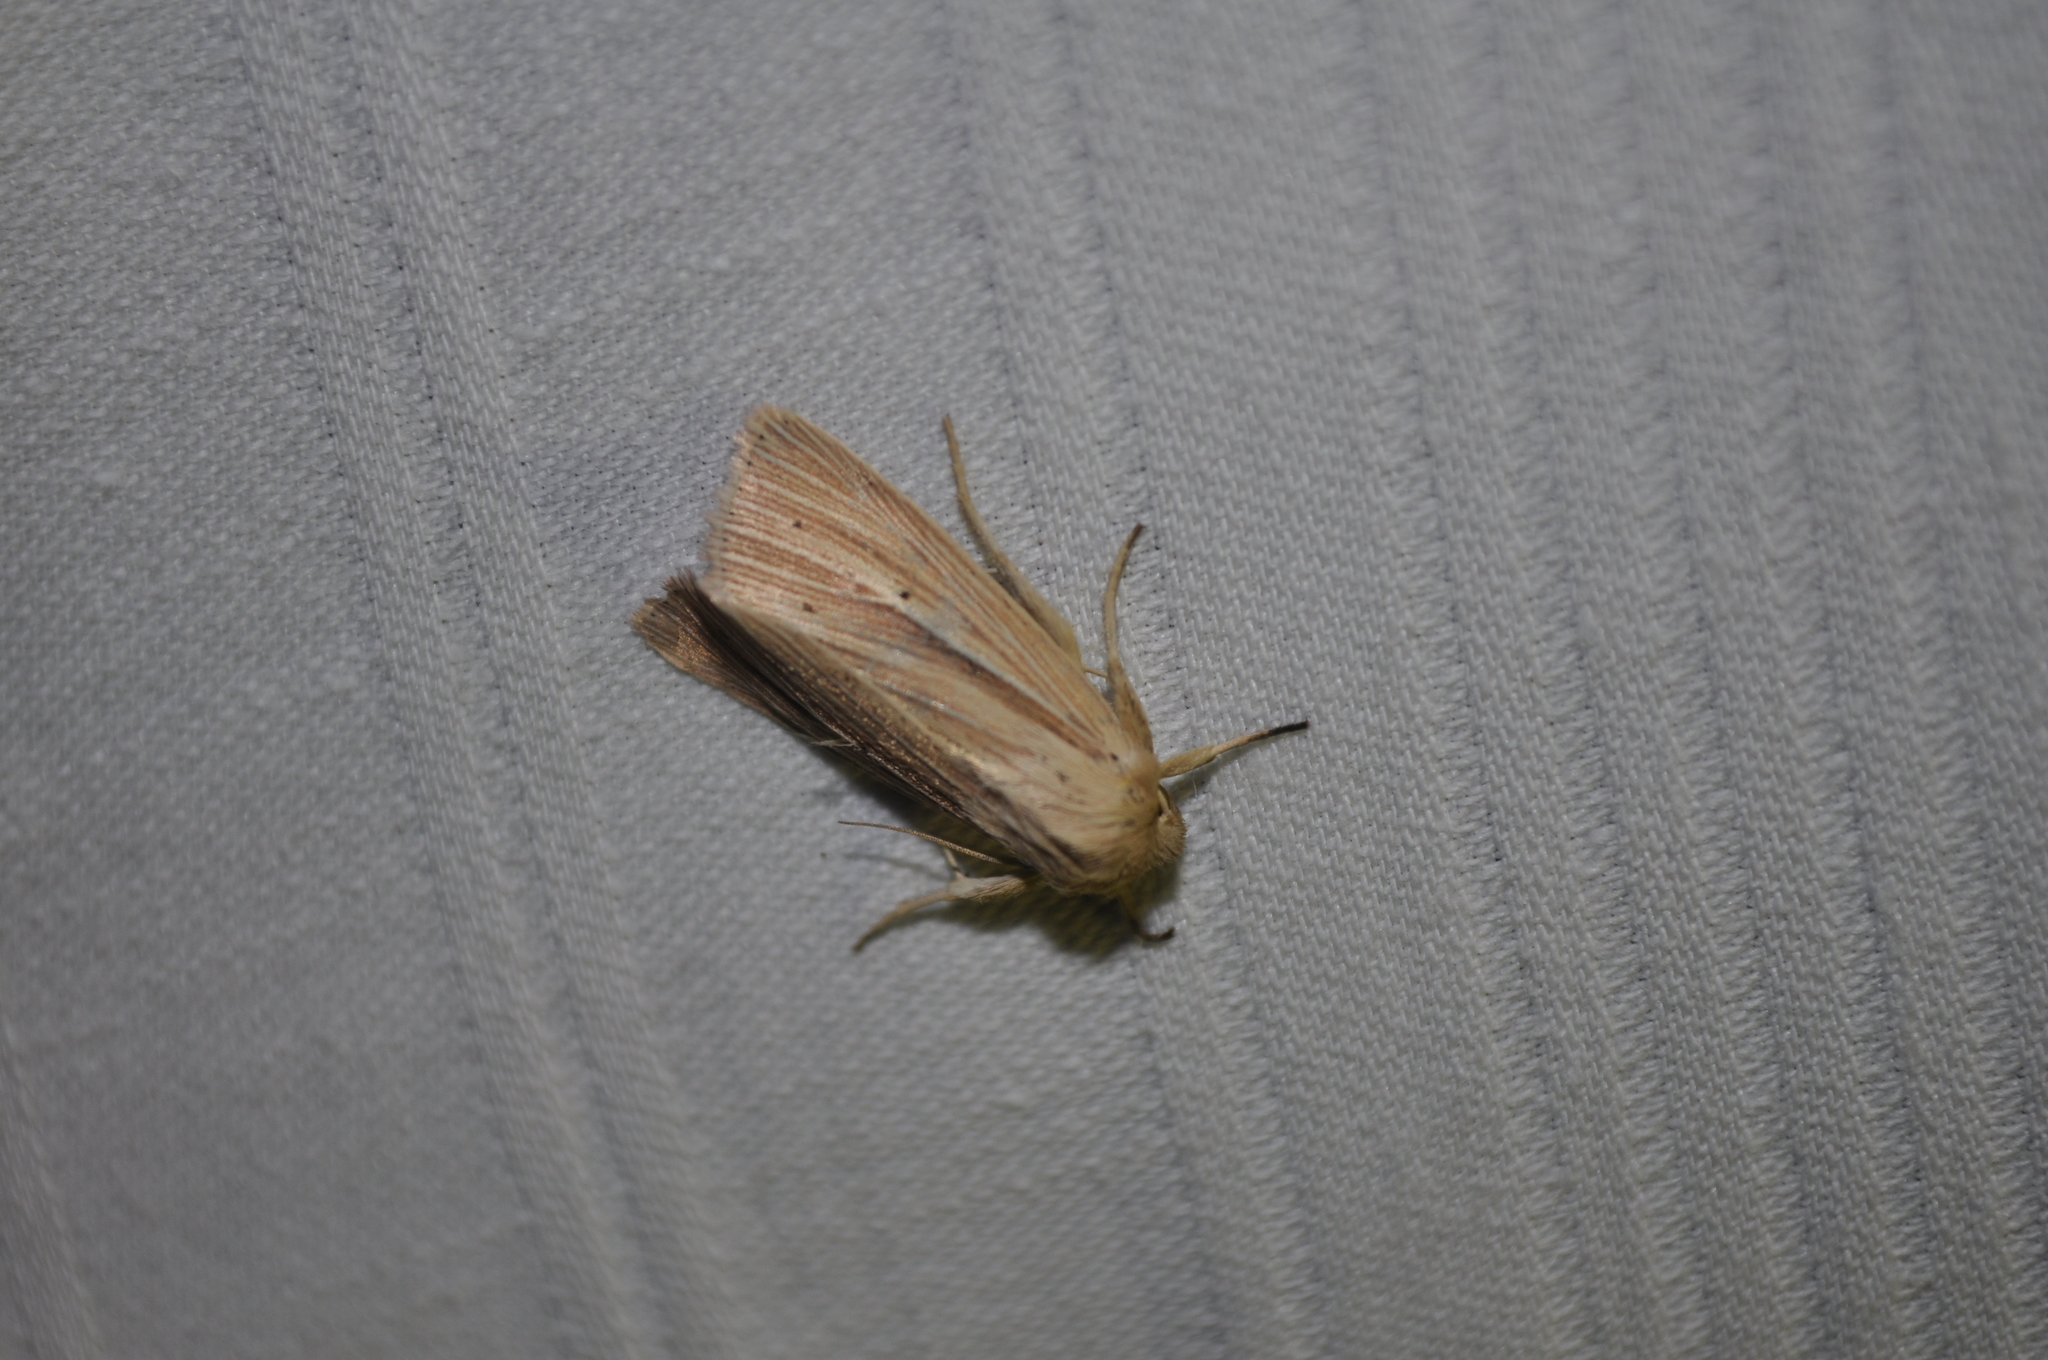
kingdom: Animalia
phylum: Arthropoda
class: Insecta
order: Lepidoptera
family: Noctuidae
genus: Mythimna
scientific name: Mythimna impura
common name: Smoky wainscot
